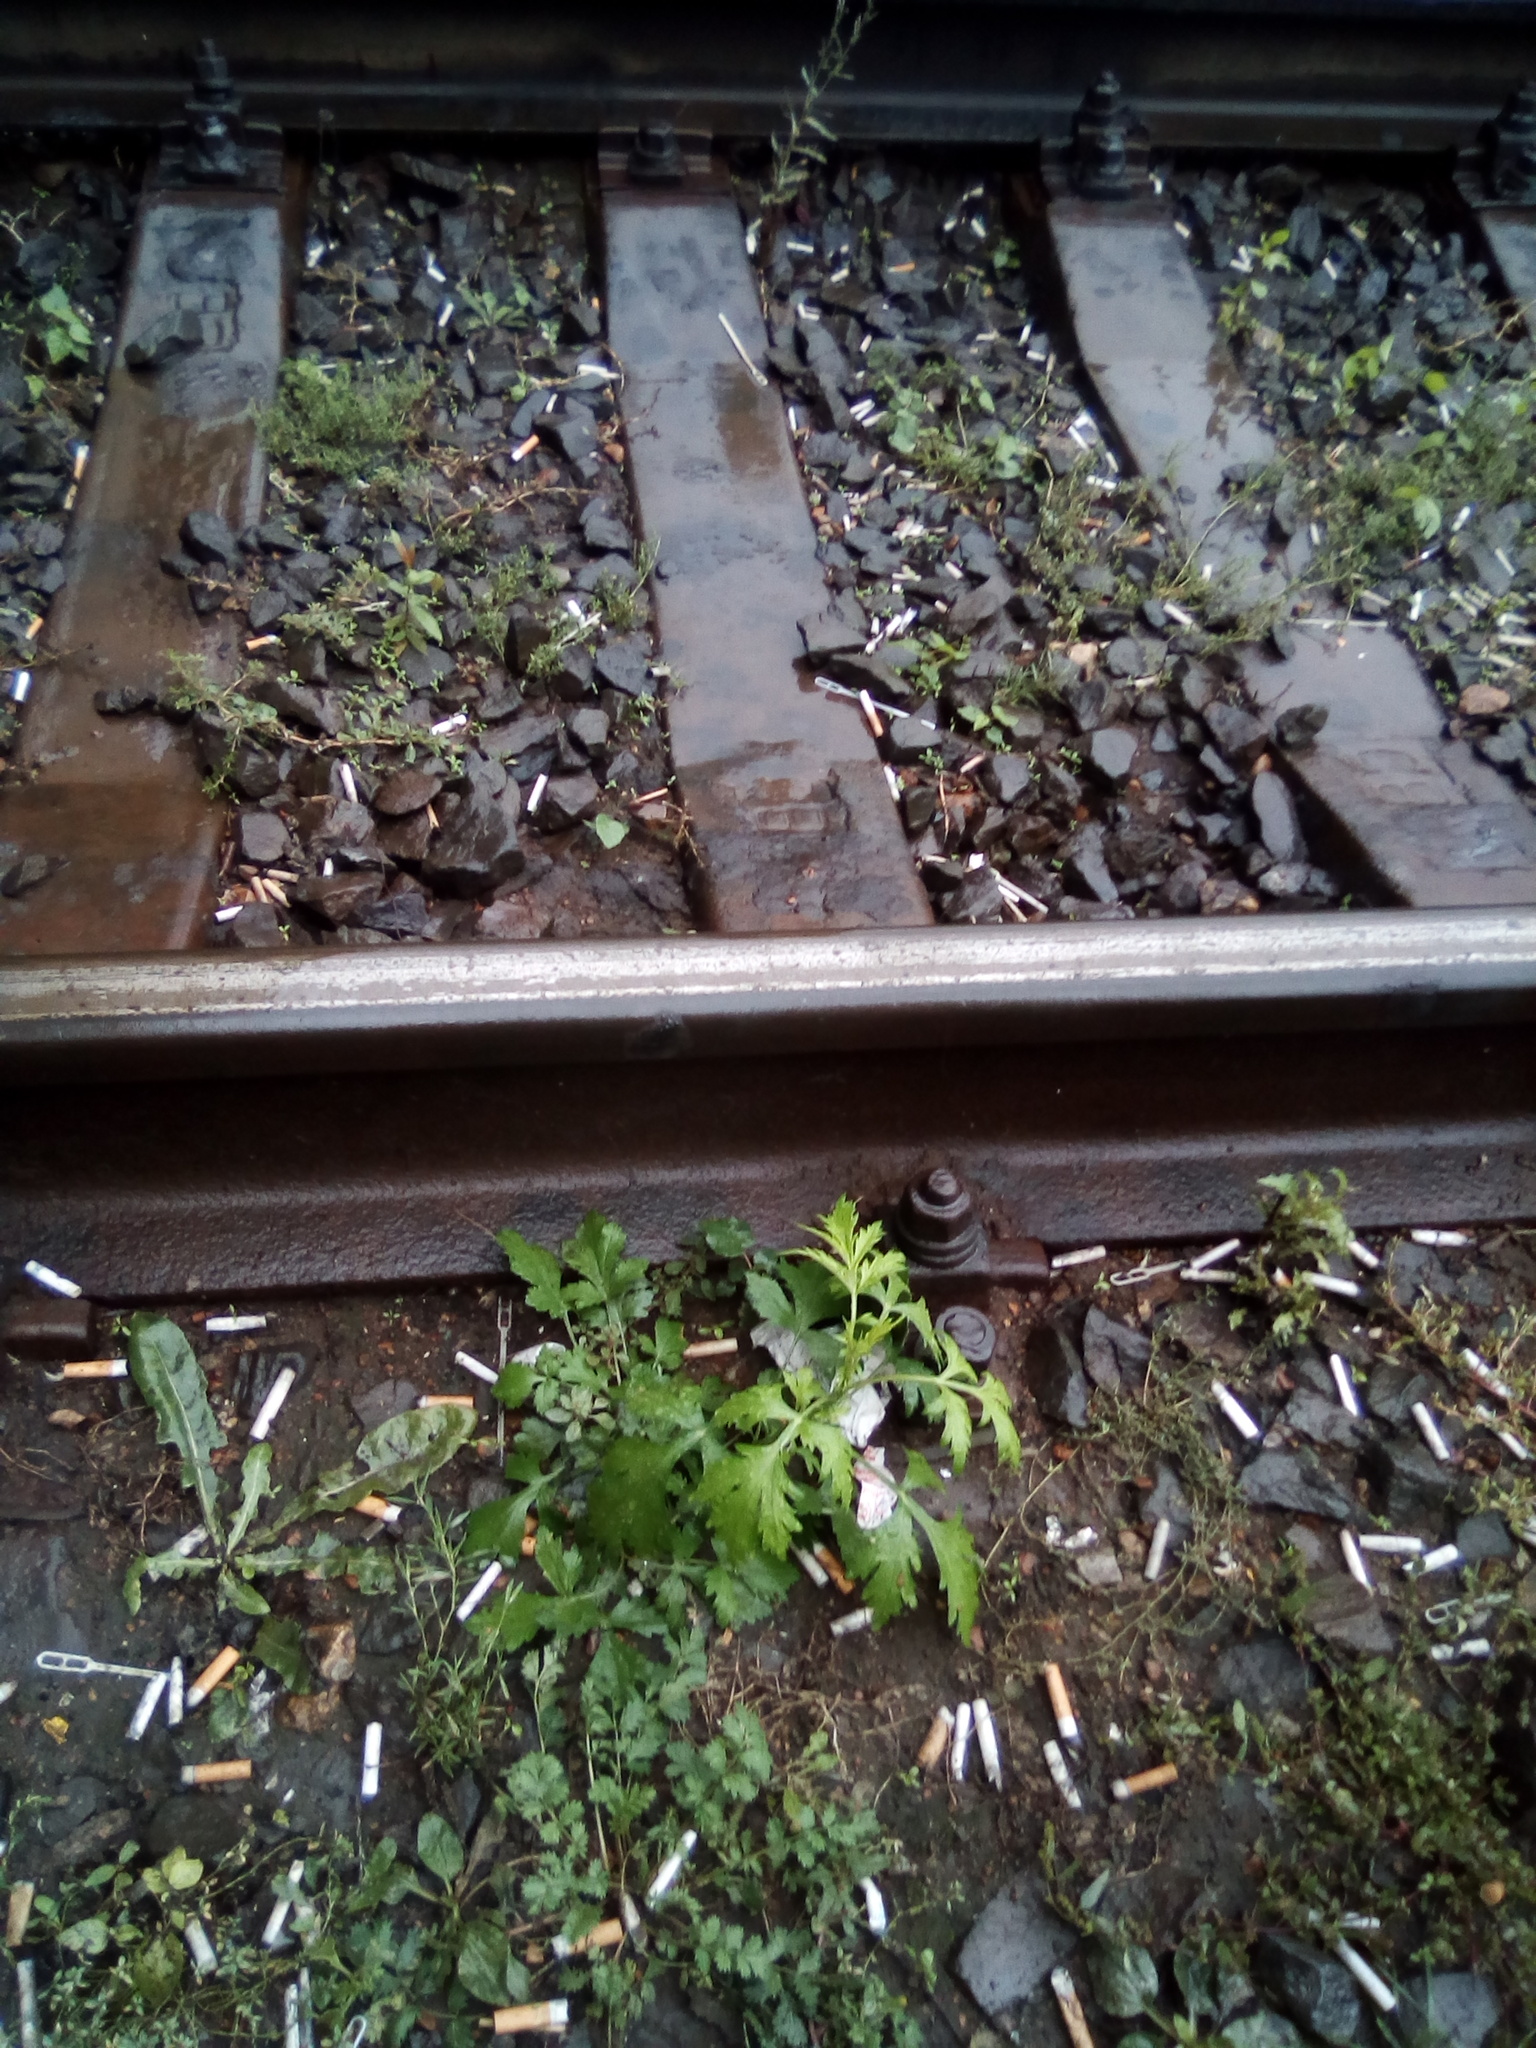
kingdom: Plantae
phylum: Tracheophyta
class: Magnoliopsida
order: Asterales
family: Asteraceae
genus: Artemisia
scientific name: Artemisia vulgaris
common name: Mugwort
